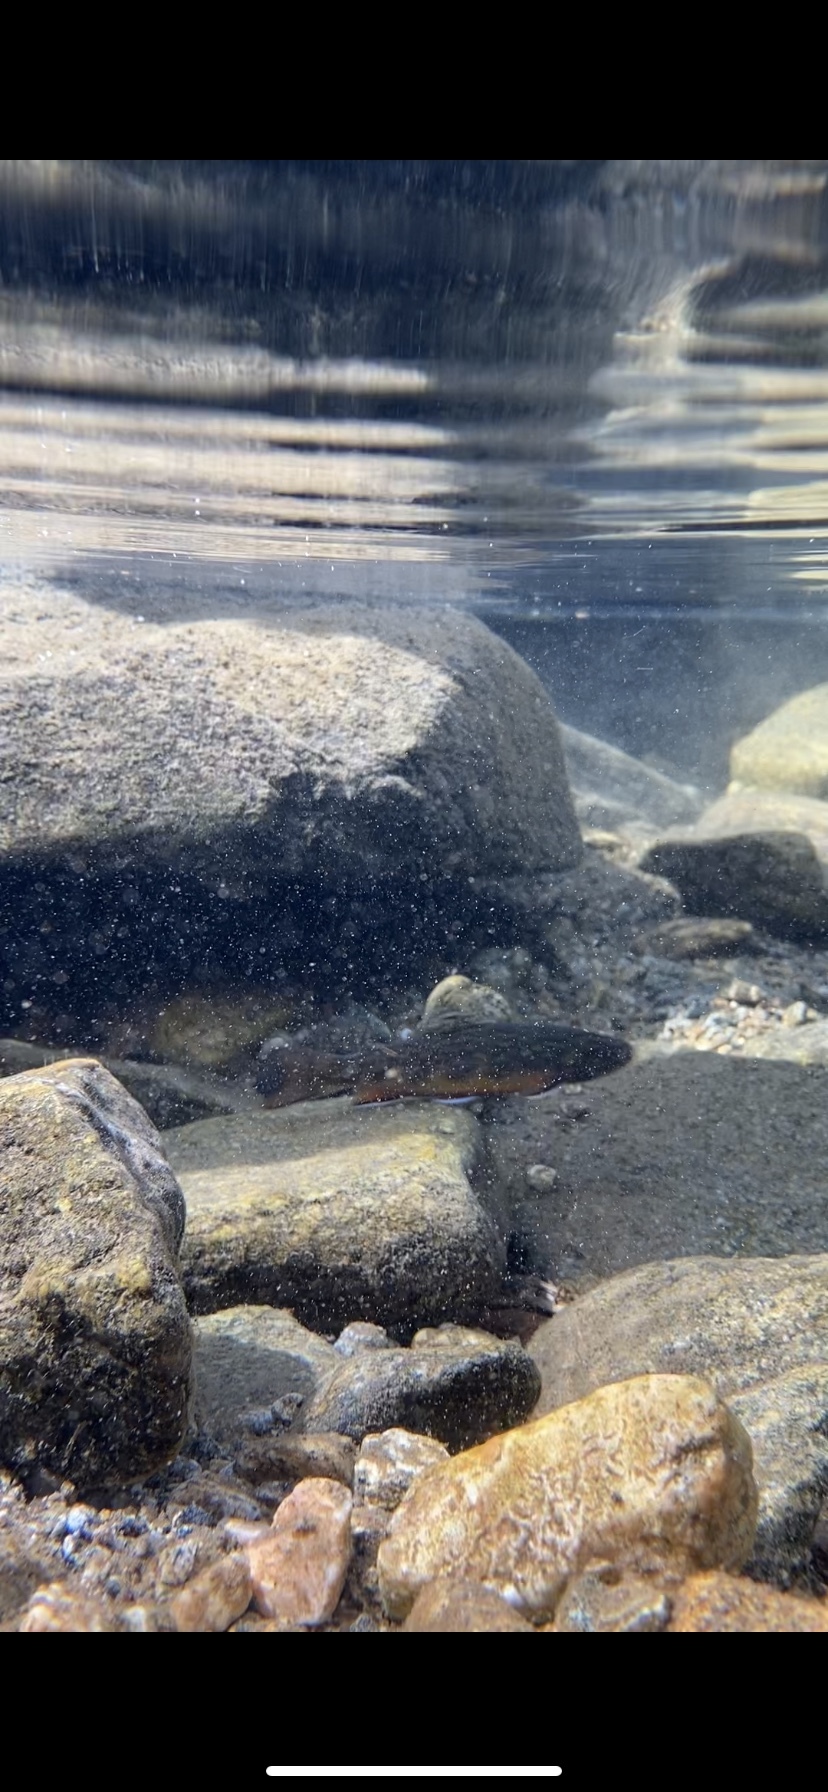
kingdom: Animalia
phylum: Chordata
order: Salmoniformes
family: Salmonidae
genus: Salvelinus
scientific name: Salvelinus fontinalis
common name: Brook trout
